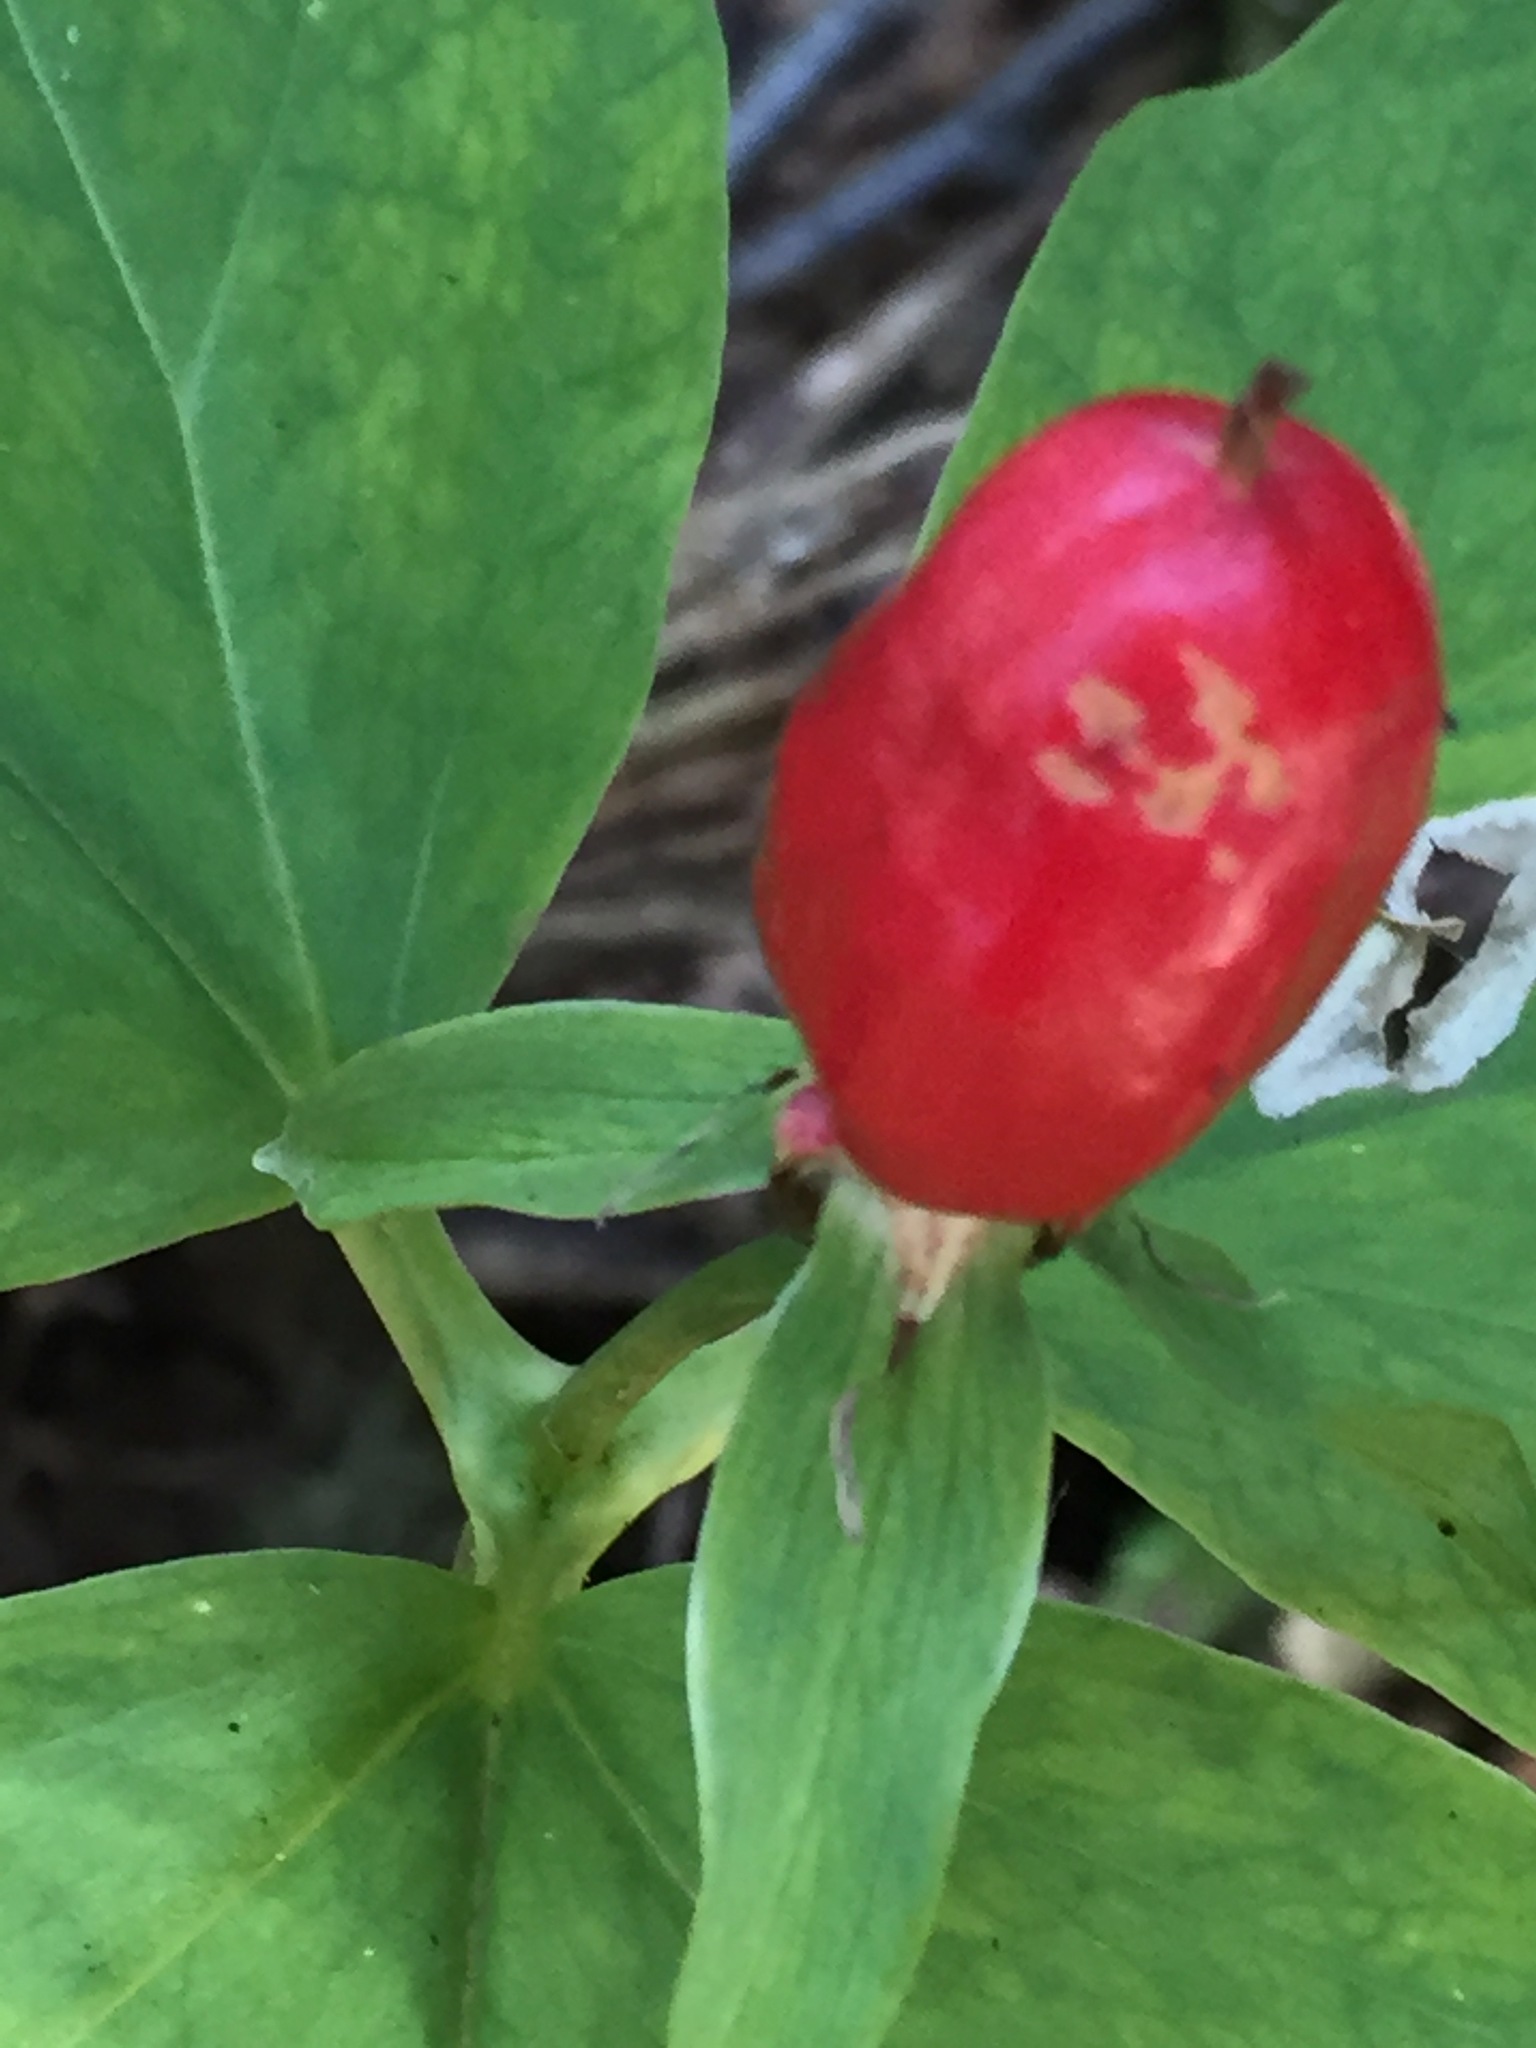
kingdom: Plantae
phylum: Tracheophyta
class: Liliopsida
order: Liliales
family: Melanthiaceae
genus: Trillium
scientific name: Trillium undulatum
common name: Paint trillium
